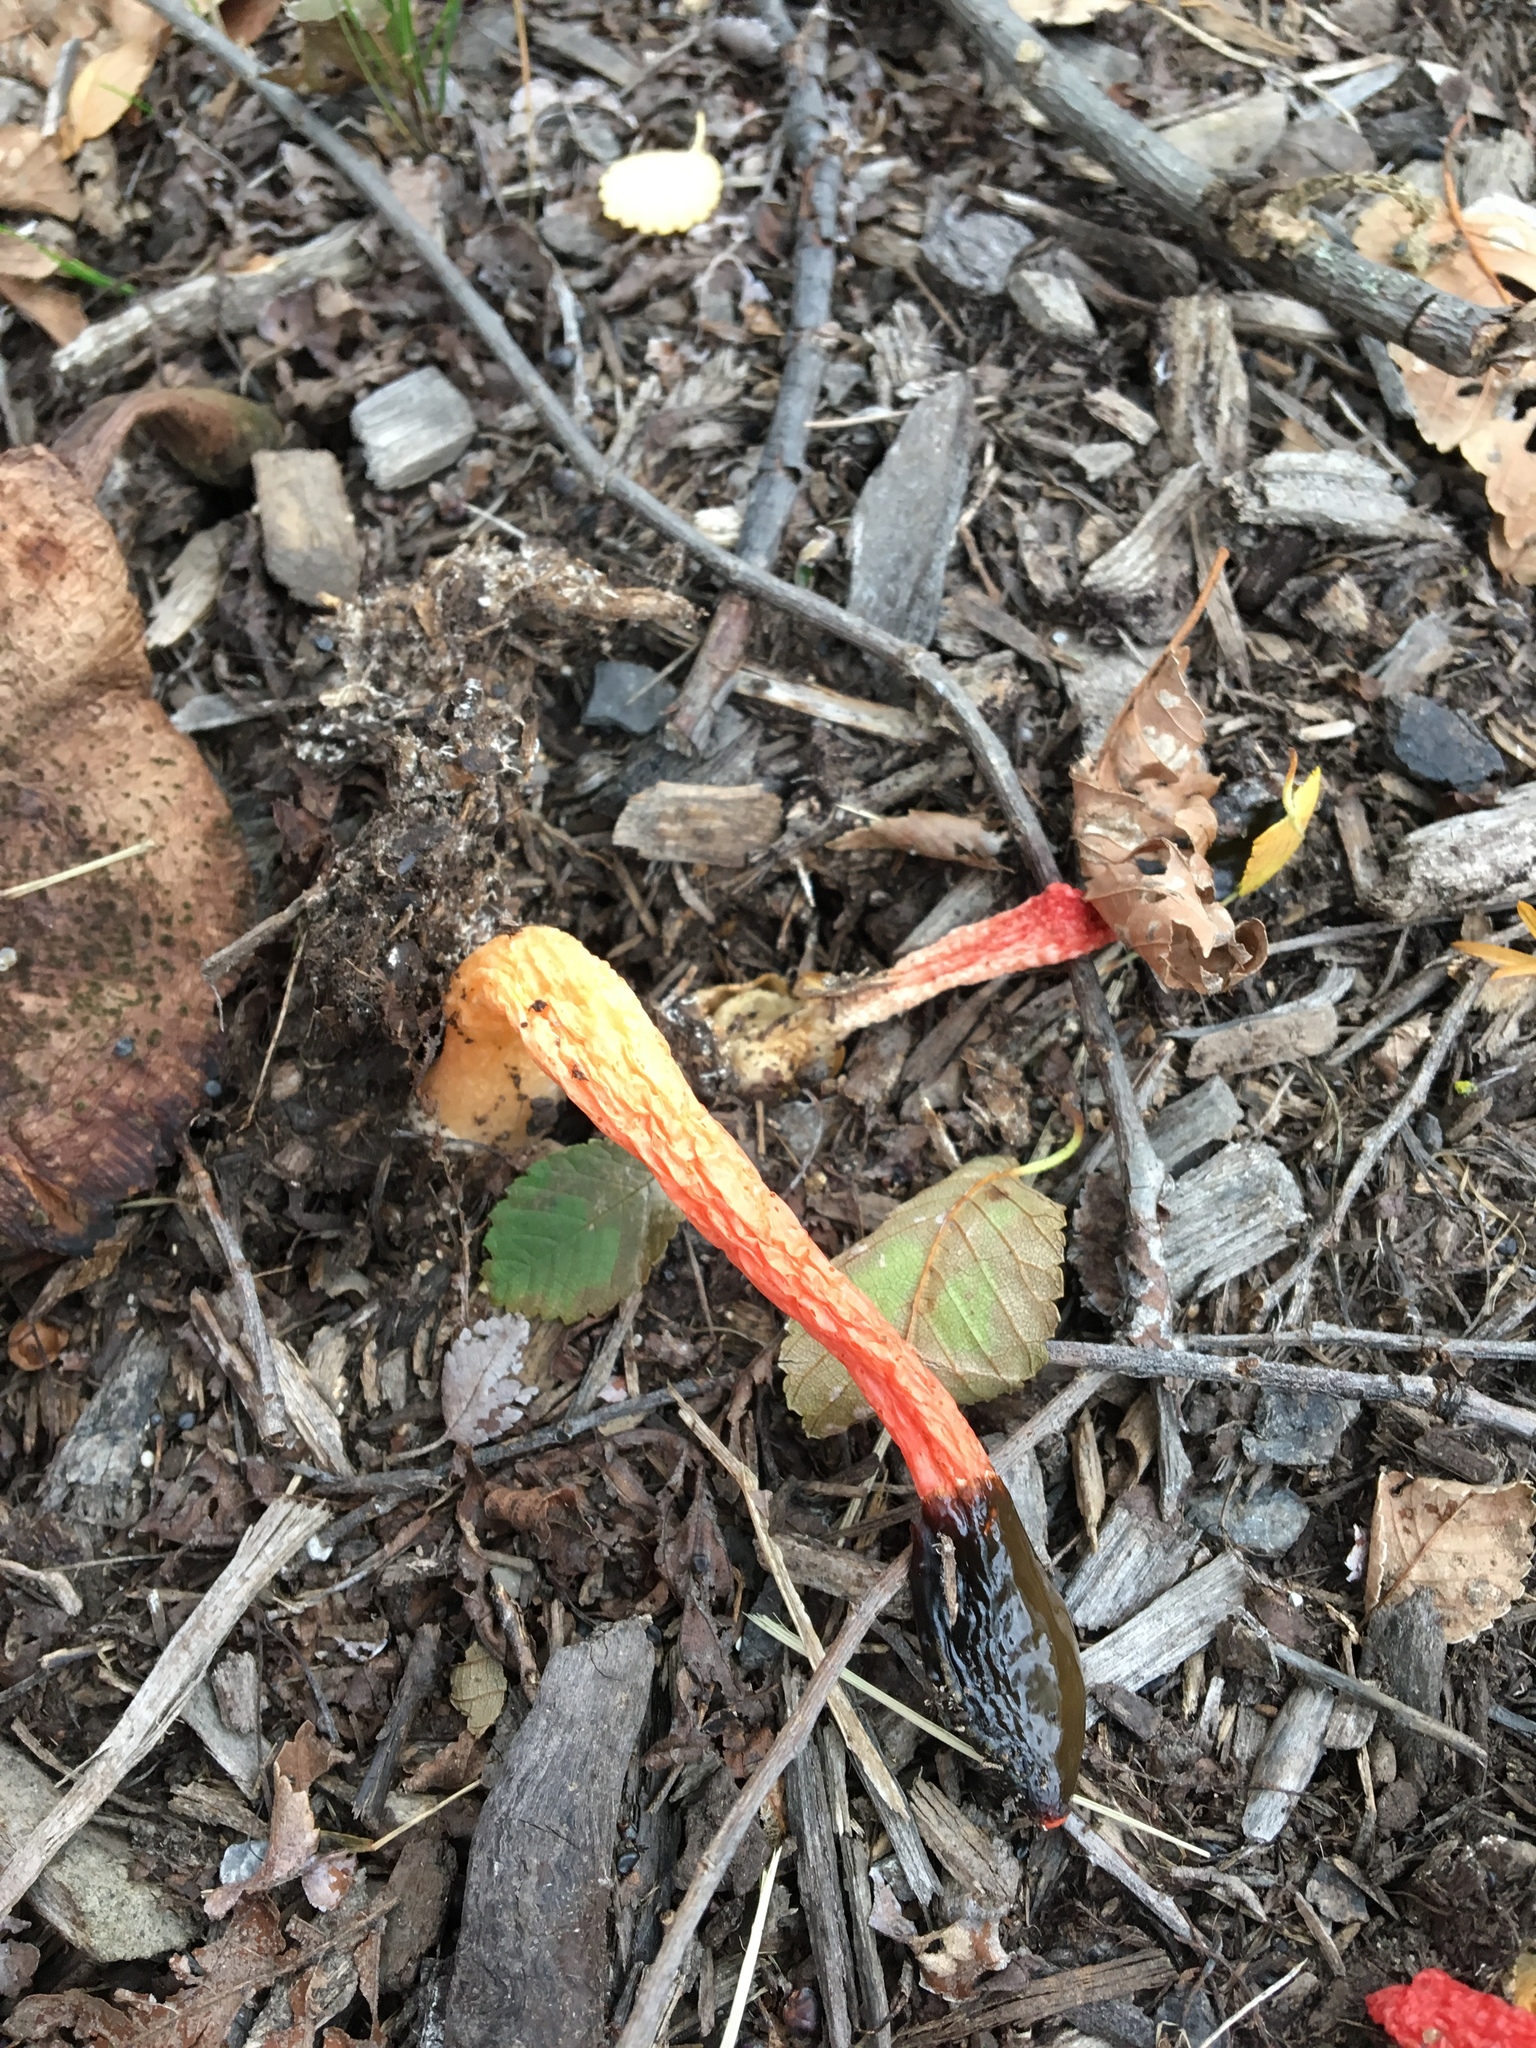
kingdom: Fungi
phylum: Basidiomycota
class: Agaricomycetes
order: Phallales
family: Phallaceae
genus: Phallus
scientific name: Phallus rugulosus
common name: Wrinkly stinkhorn
